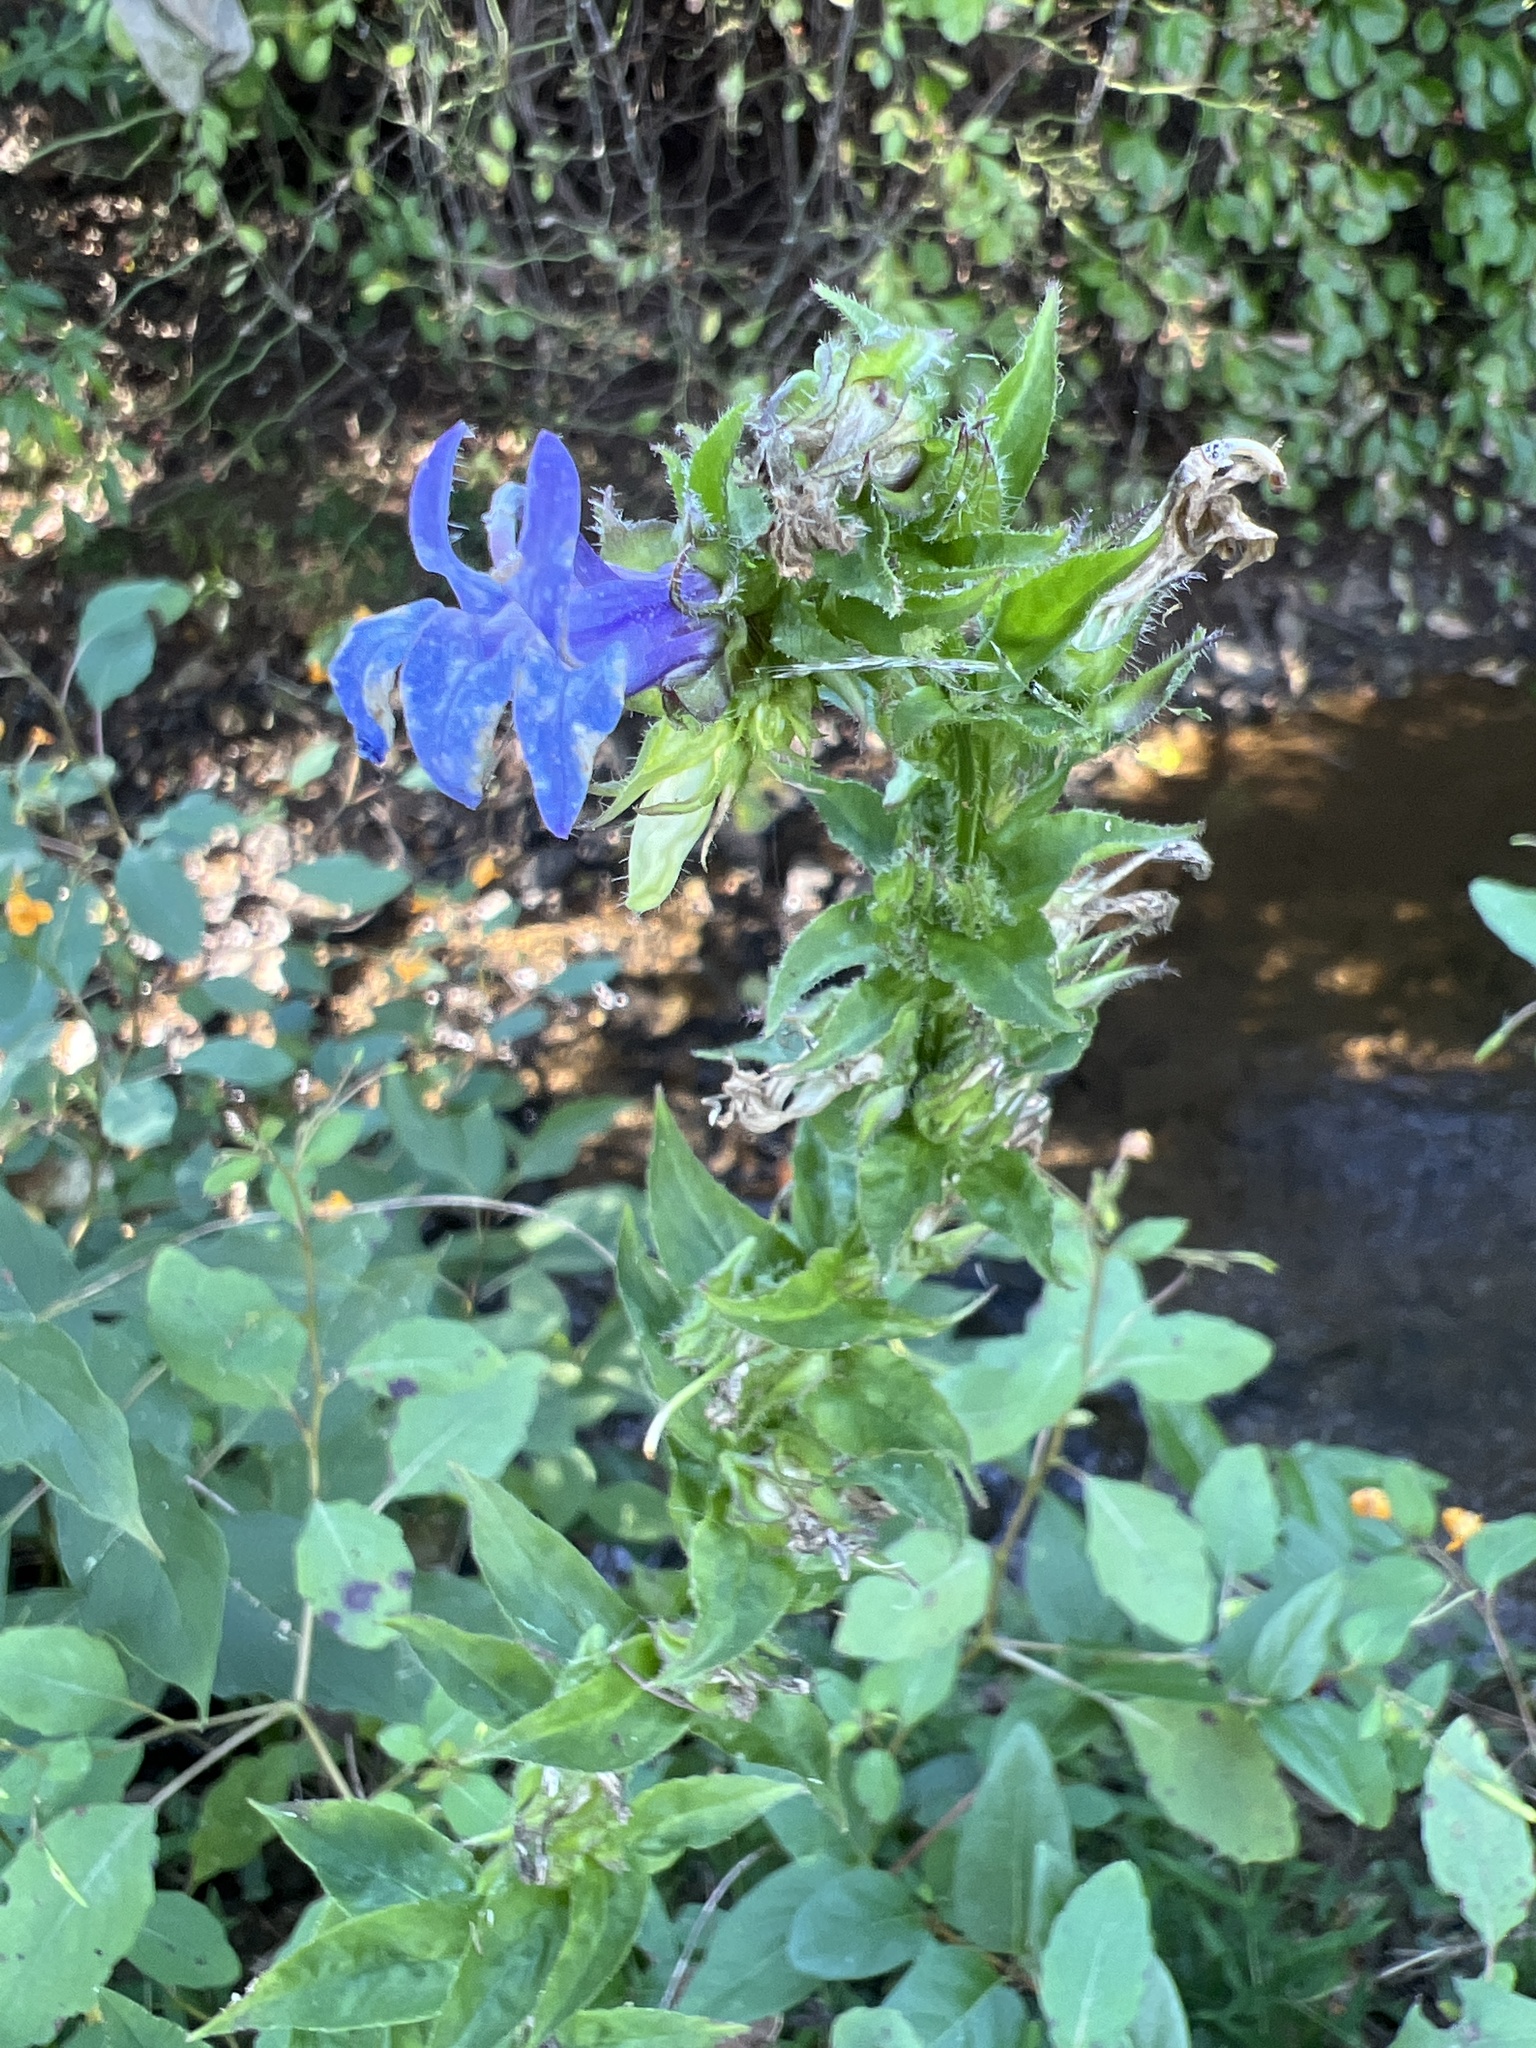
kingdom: Plantae
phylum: Tracheophyta
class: Magnoliopsida
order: Asterales
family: Campanulaceae
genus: Lobelia
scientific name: Lobelia siphilitica
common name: Great lobelia
